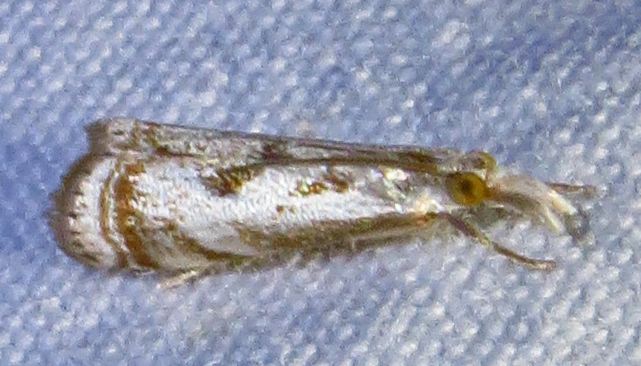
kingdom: Animalia
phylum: Arthropoda
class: Insecta
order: Lepidoptera
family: Crambidae
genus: Microcrambus
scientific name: Microcrambus elegans
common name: Elegant grass-veneer
